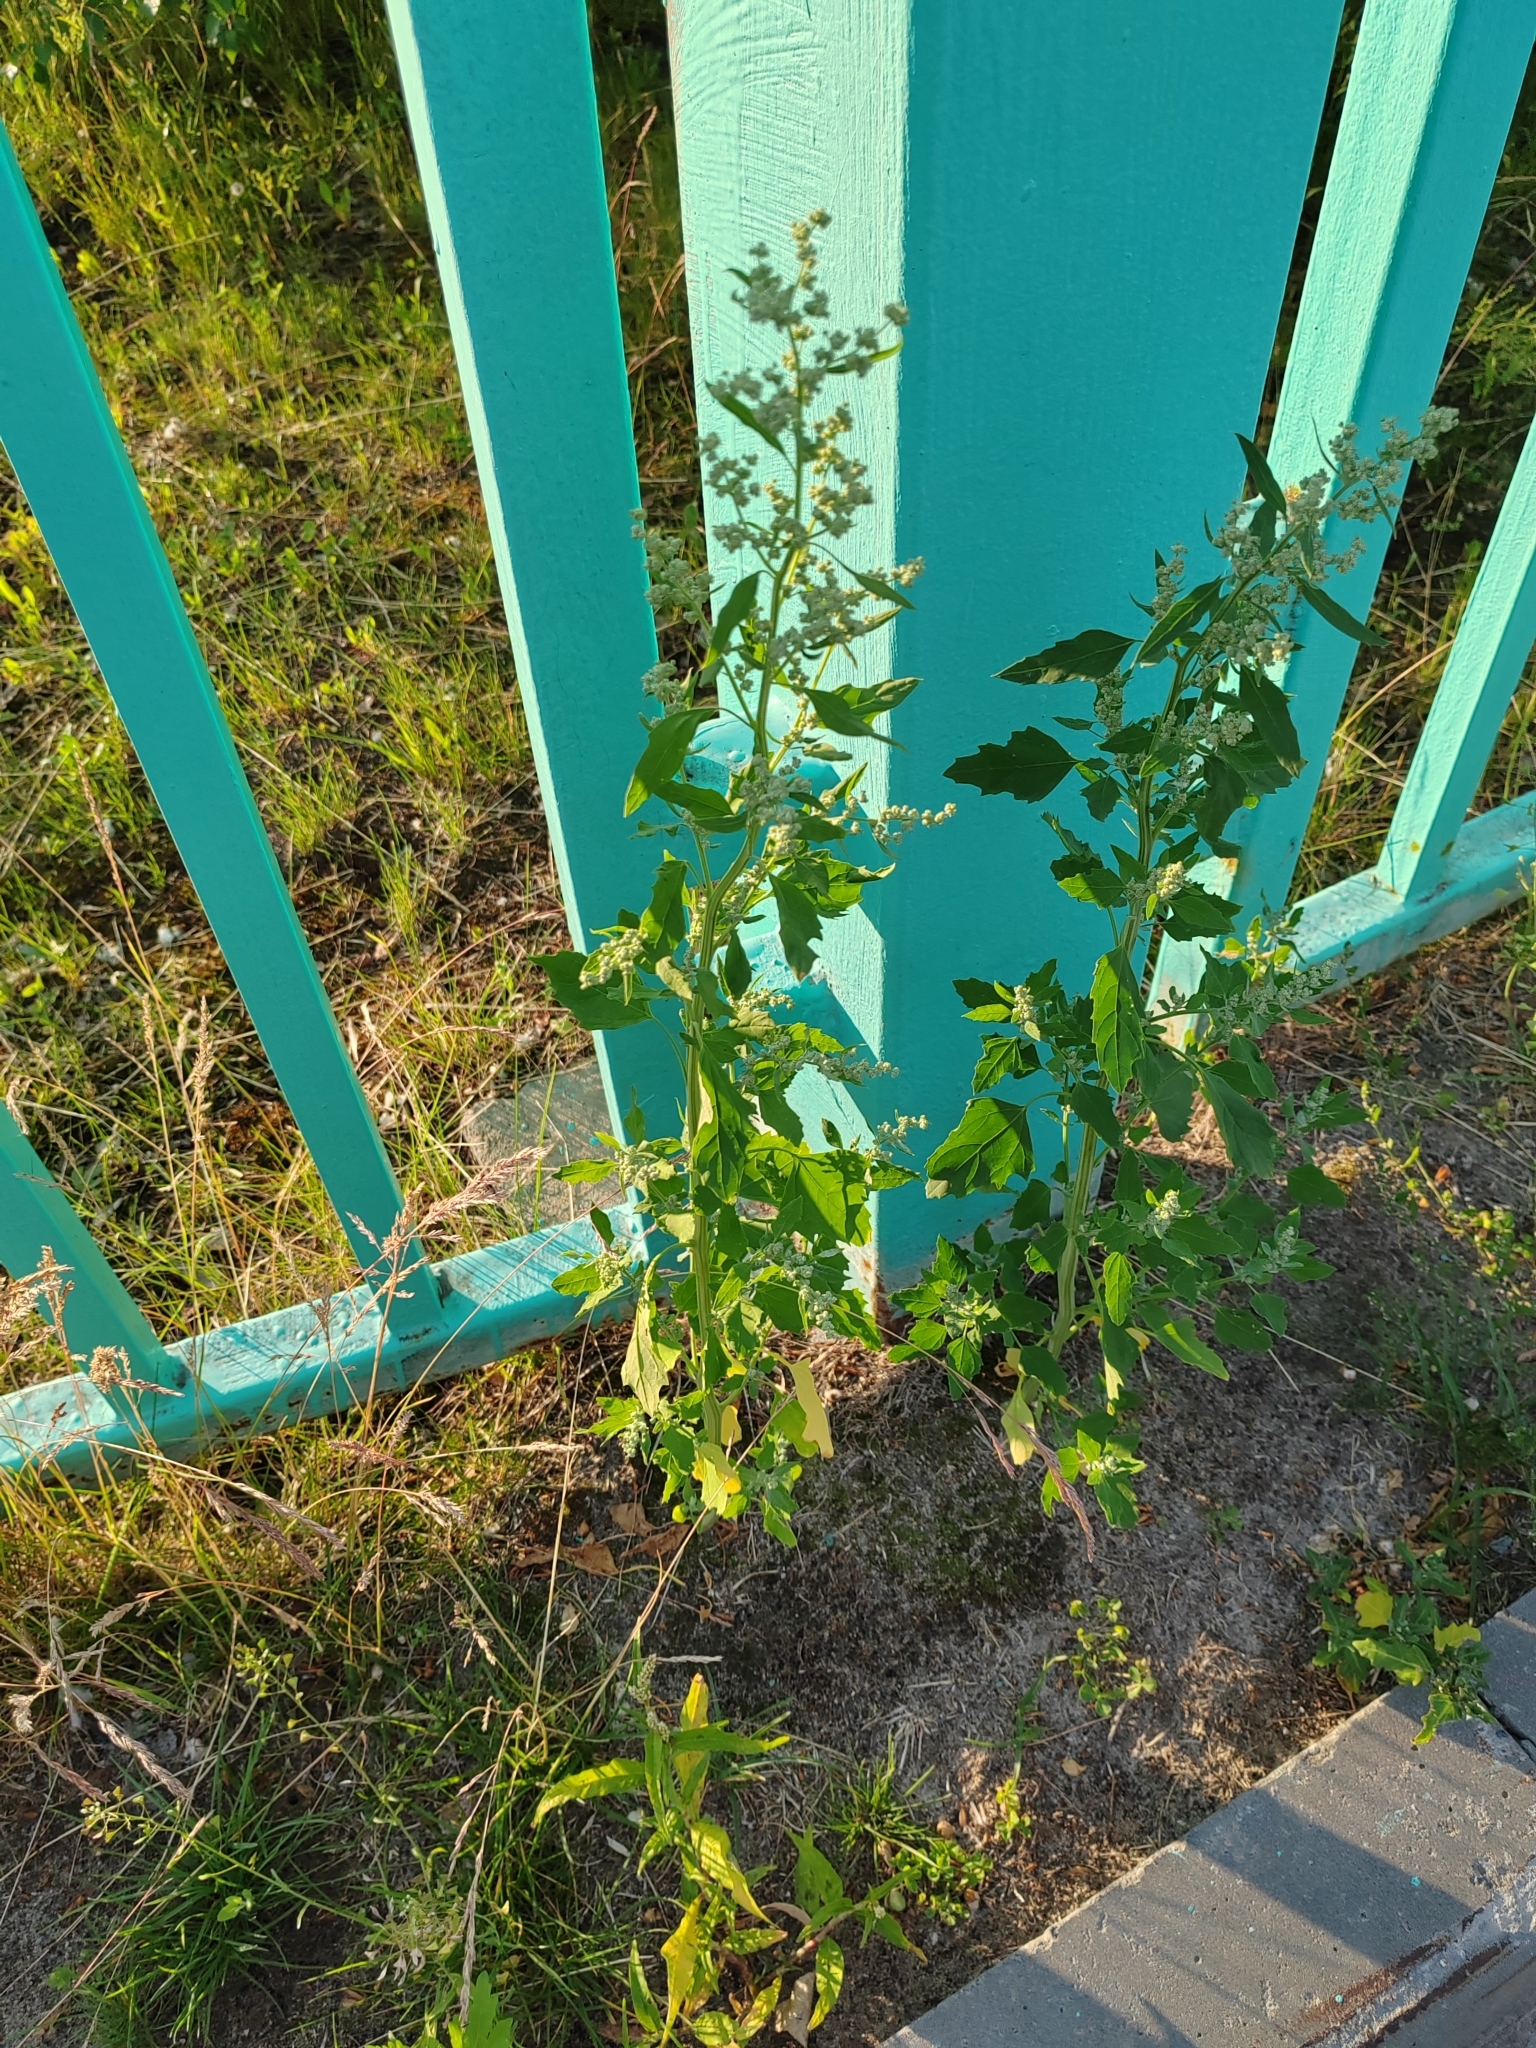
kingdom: Plantae
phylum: Tracheophyta
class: Magnoliopsida
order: Caryophyllales
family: Amaranthaceae
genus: Chenopodium
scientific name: Chenopodium album
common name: Fat-hen
